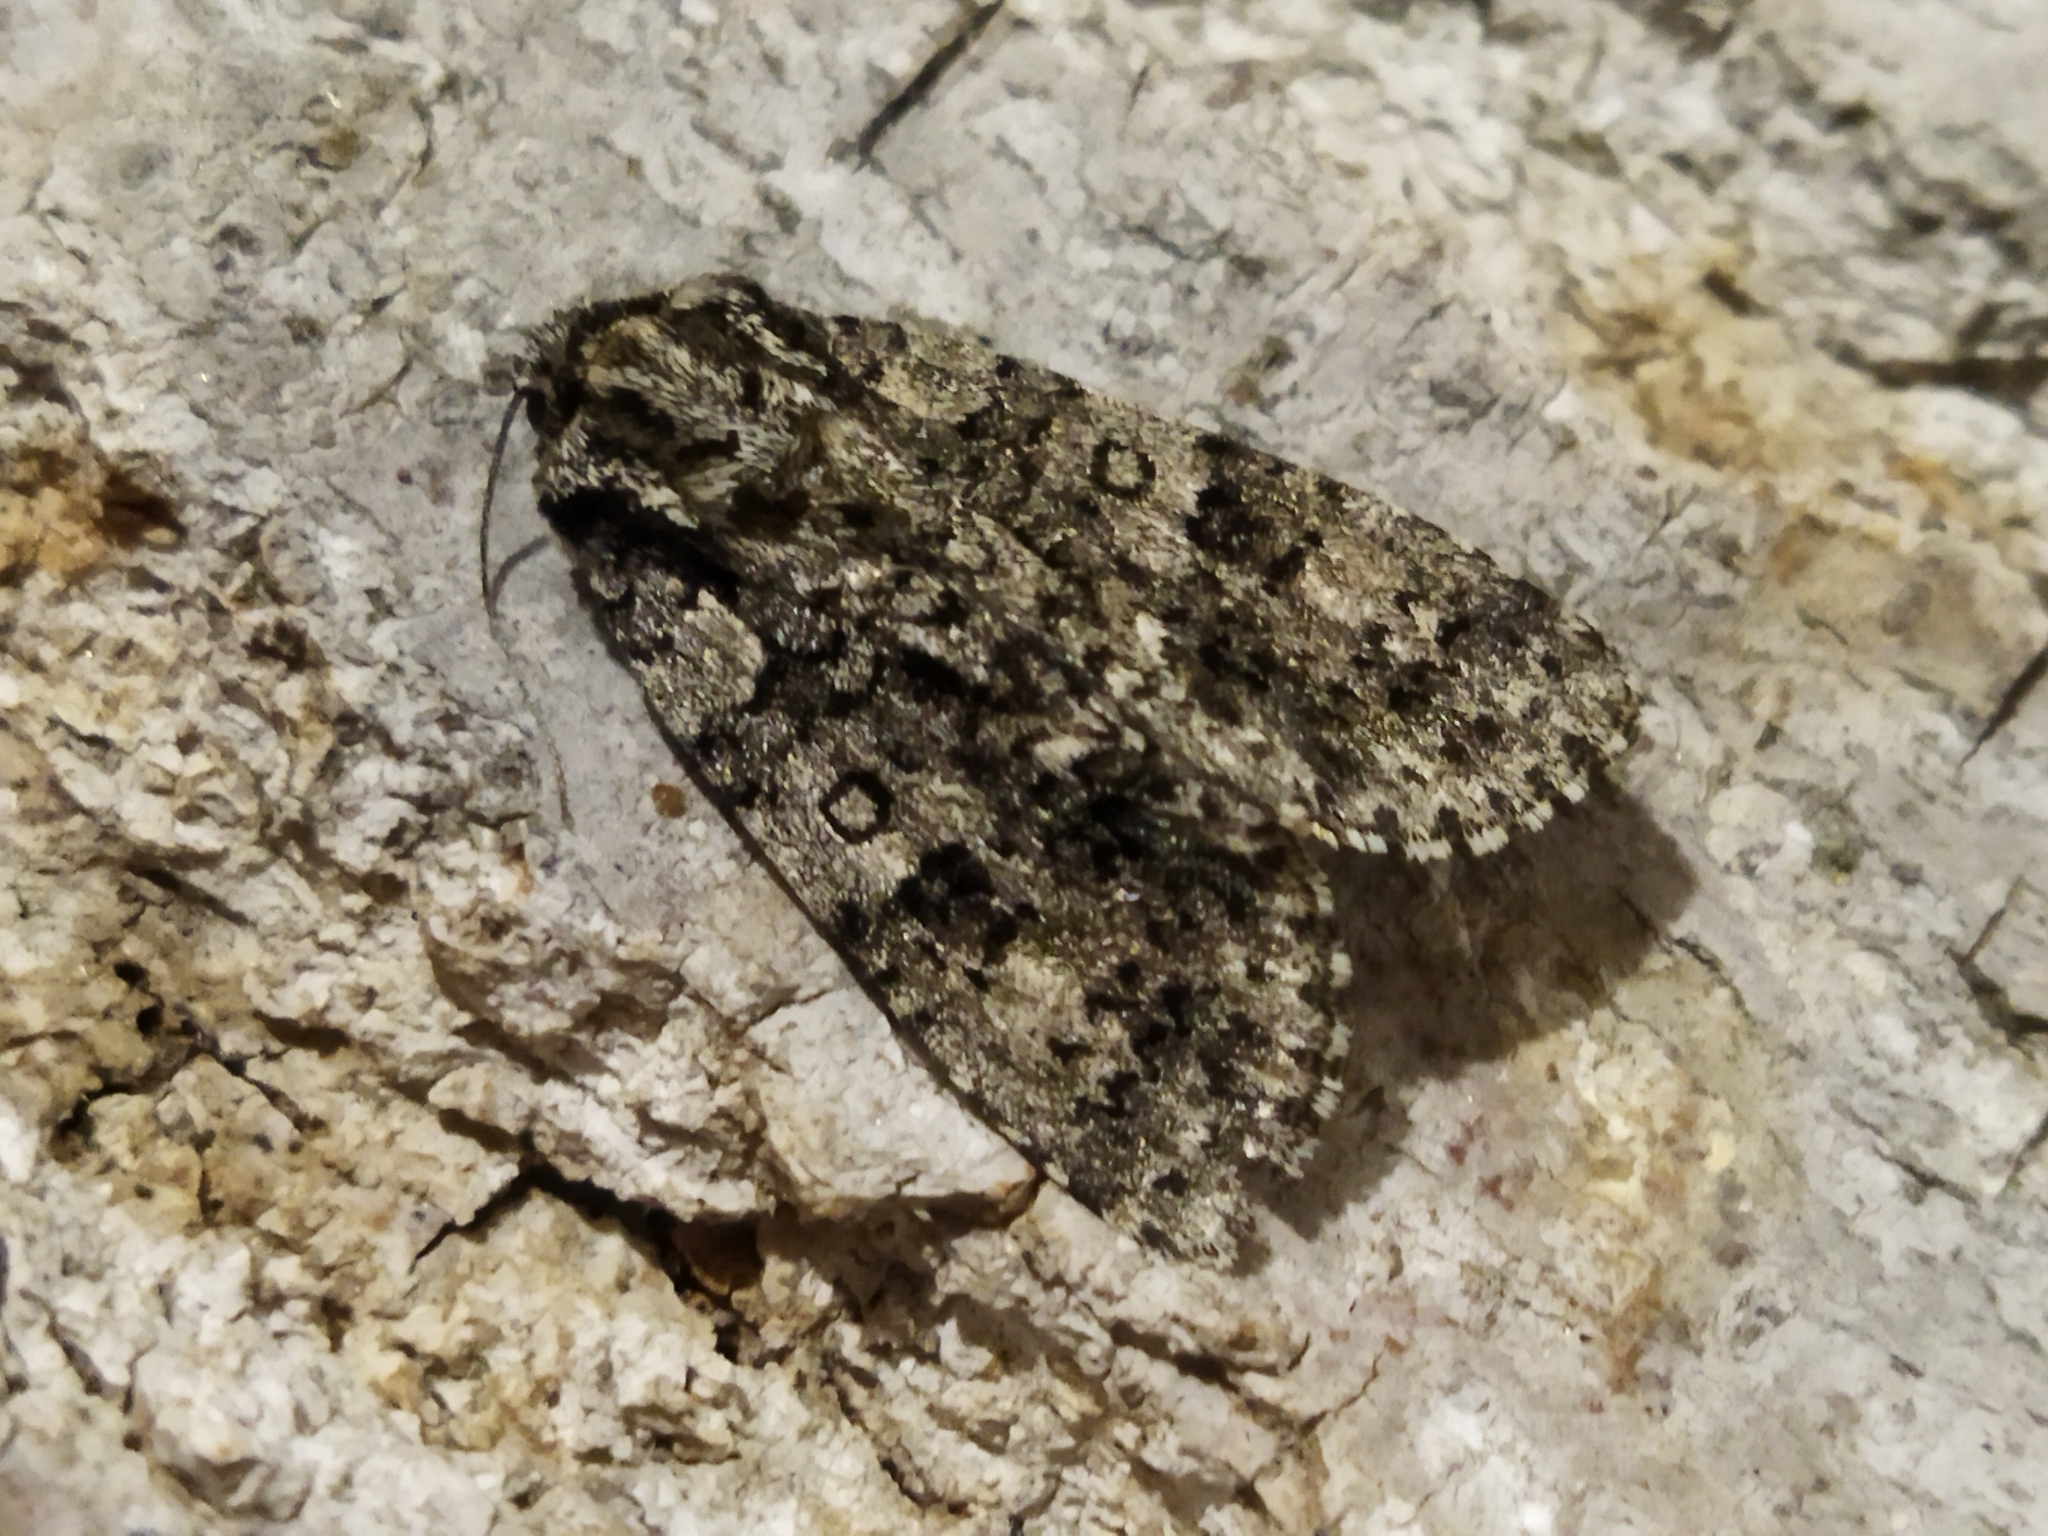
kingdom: Animalia
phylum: Arthropoda
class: Insecta
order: Lepidoptera
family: Noctuidae
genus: Acronicta
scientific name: Acronicta rumicis
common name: Knot grass
